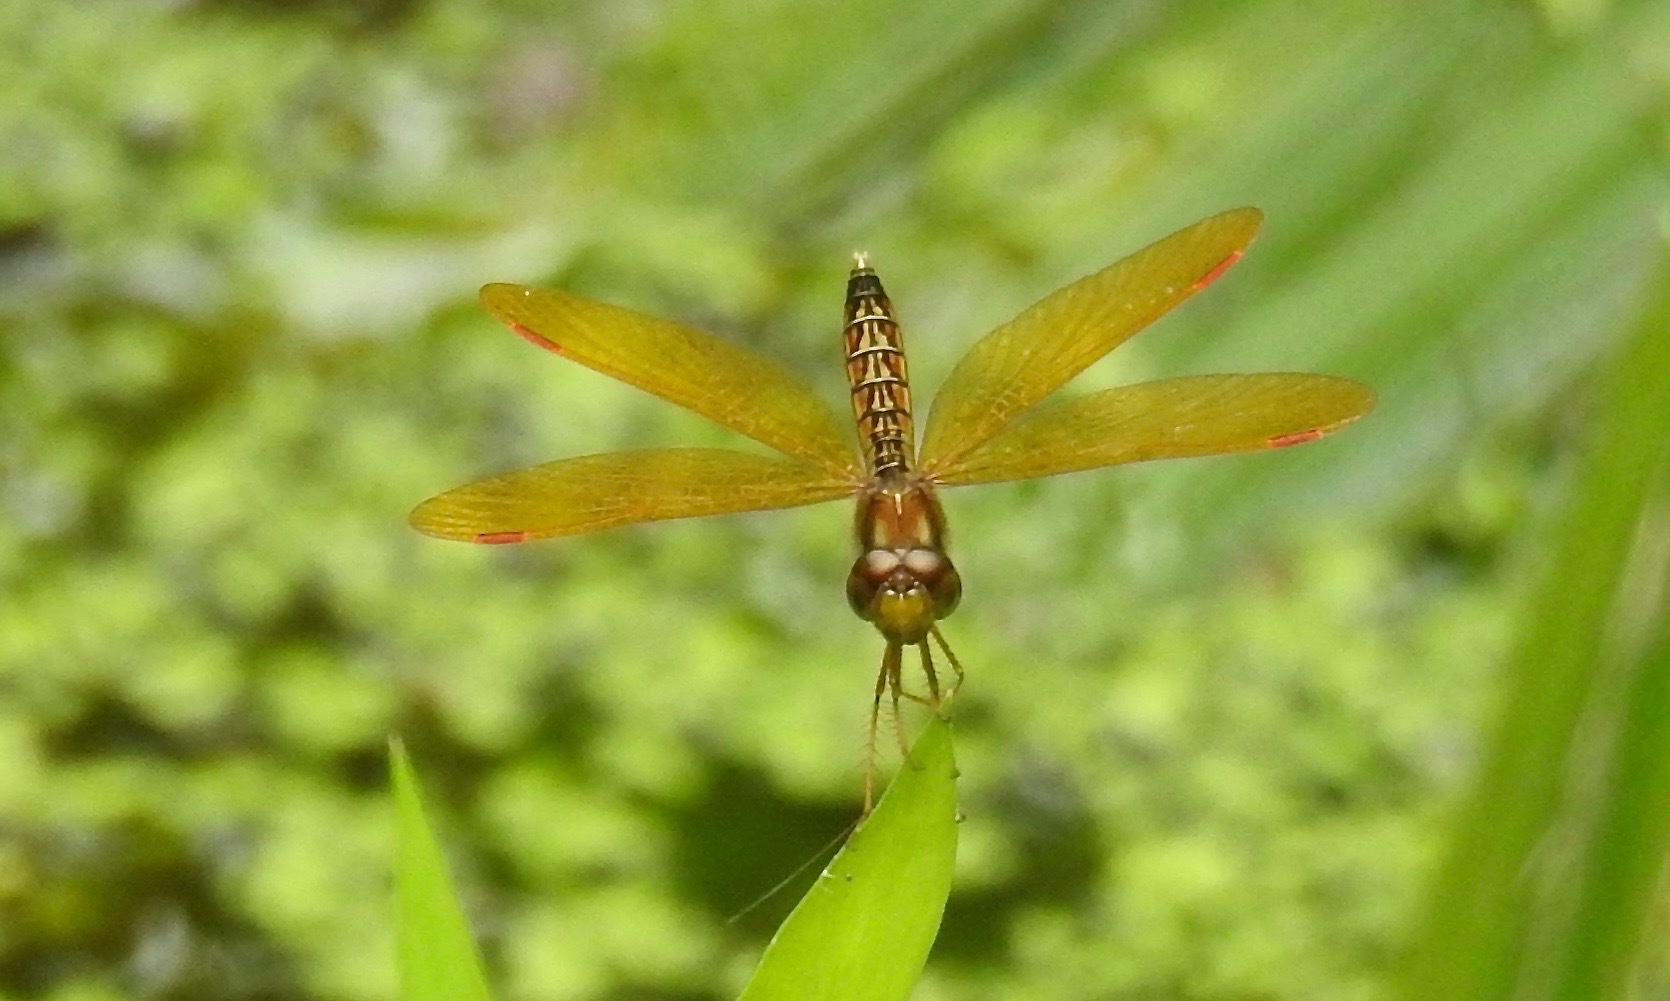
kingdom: Animalia
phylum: Arthropoda
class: Insecta
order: Odonata
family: Libellulidae
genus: Perithemis
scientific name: Perithemis tenera
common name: Eastern amberwing
